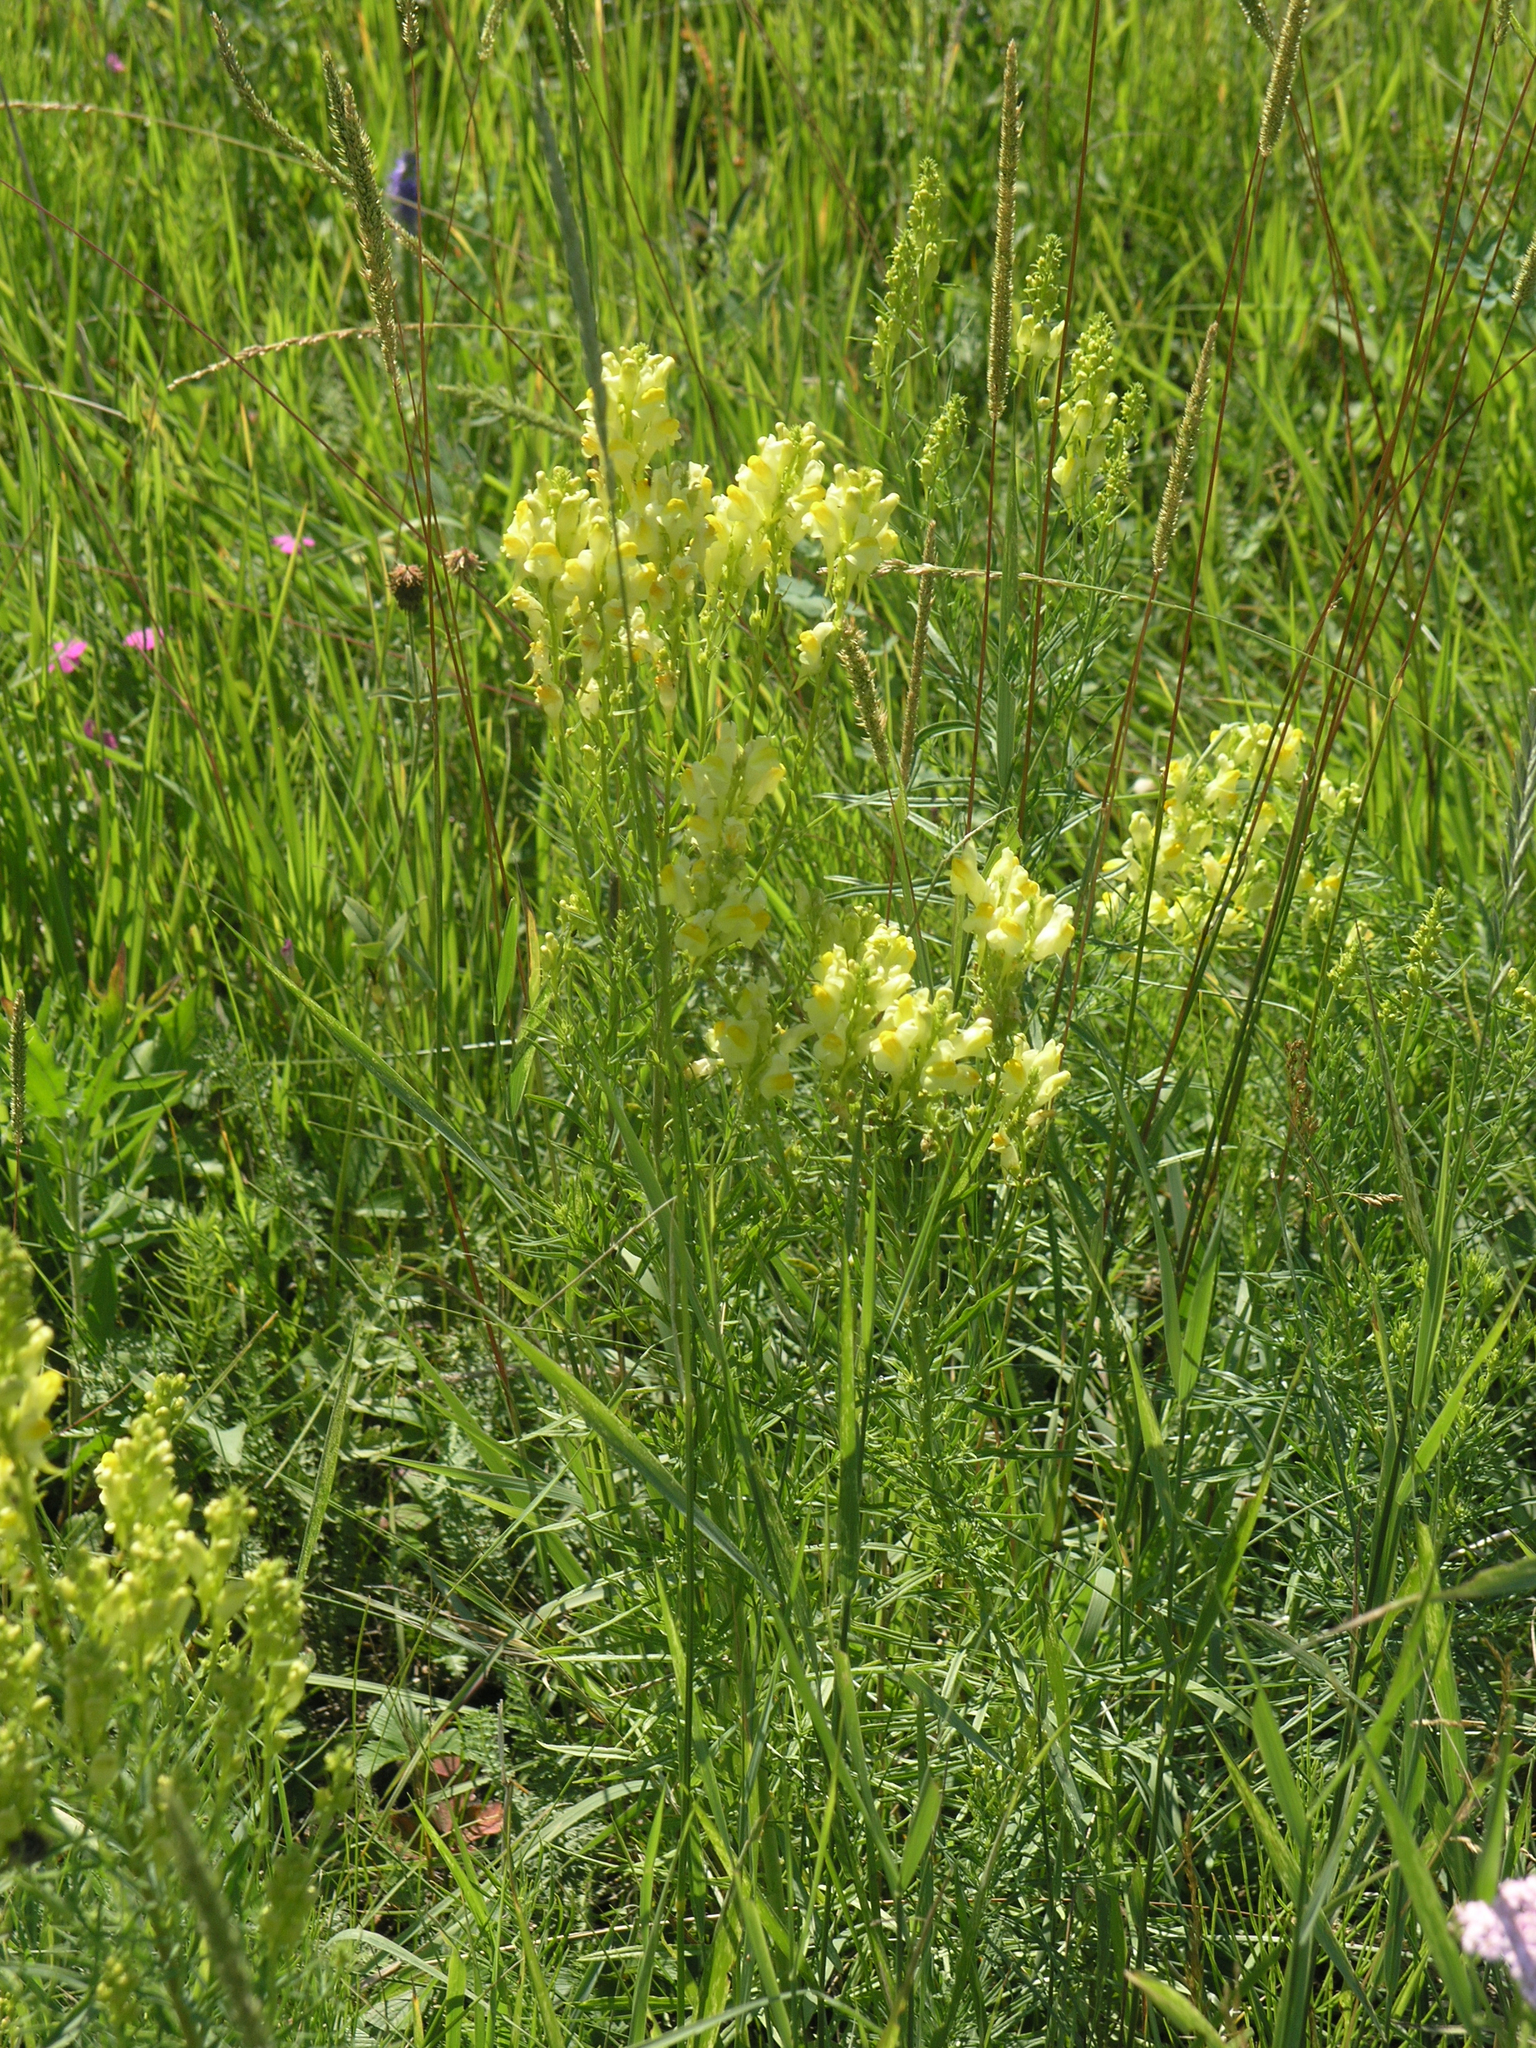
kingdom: Plantae
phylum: Tracheophyta
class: Magnoliopsida
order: Lamiales
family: Plantaginaceae
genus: Linaria
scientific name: Linaria vulgaris
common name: Butter and eggs
